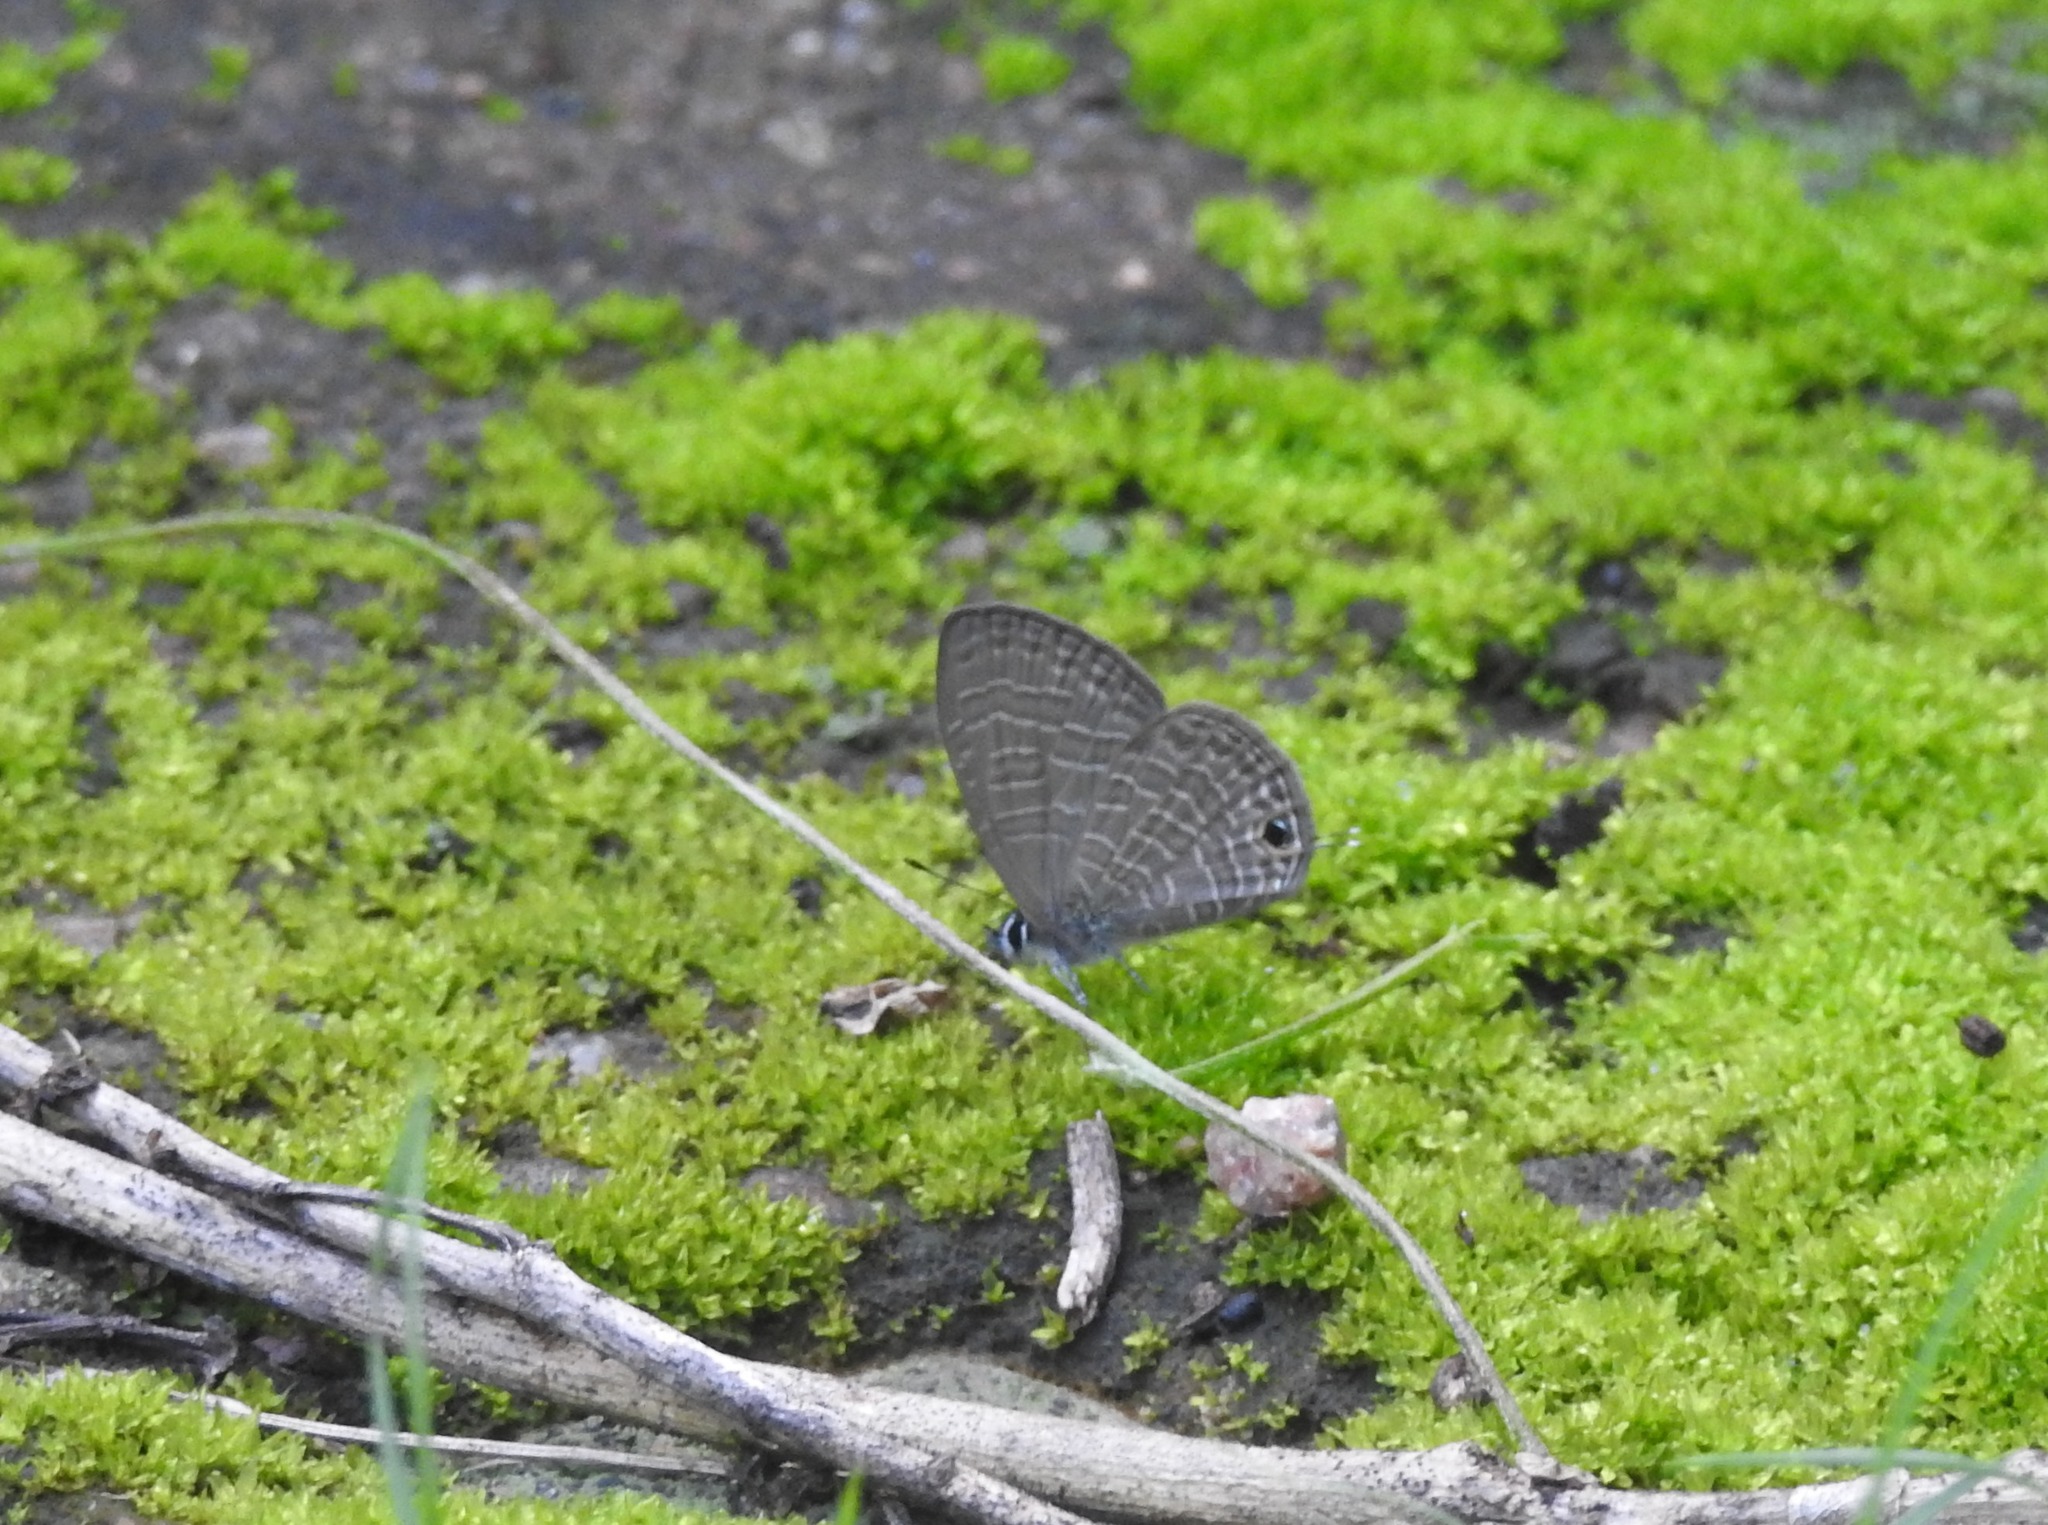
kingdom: Animalia
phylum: Arthropoda
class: Insecta
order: Lepidoptera
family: Lycaenidae
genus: Prosotas
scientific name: Prosotas nora
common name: Common line blue
